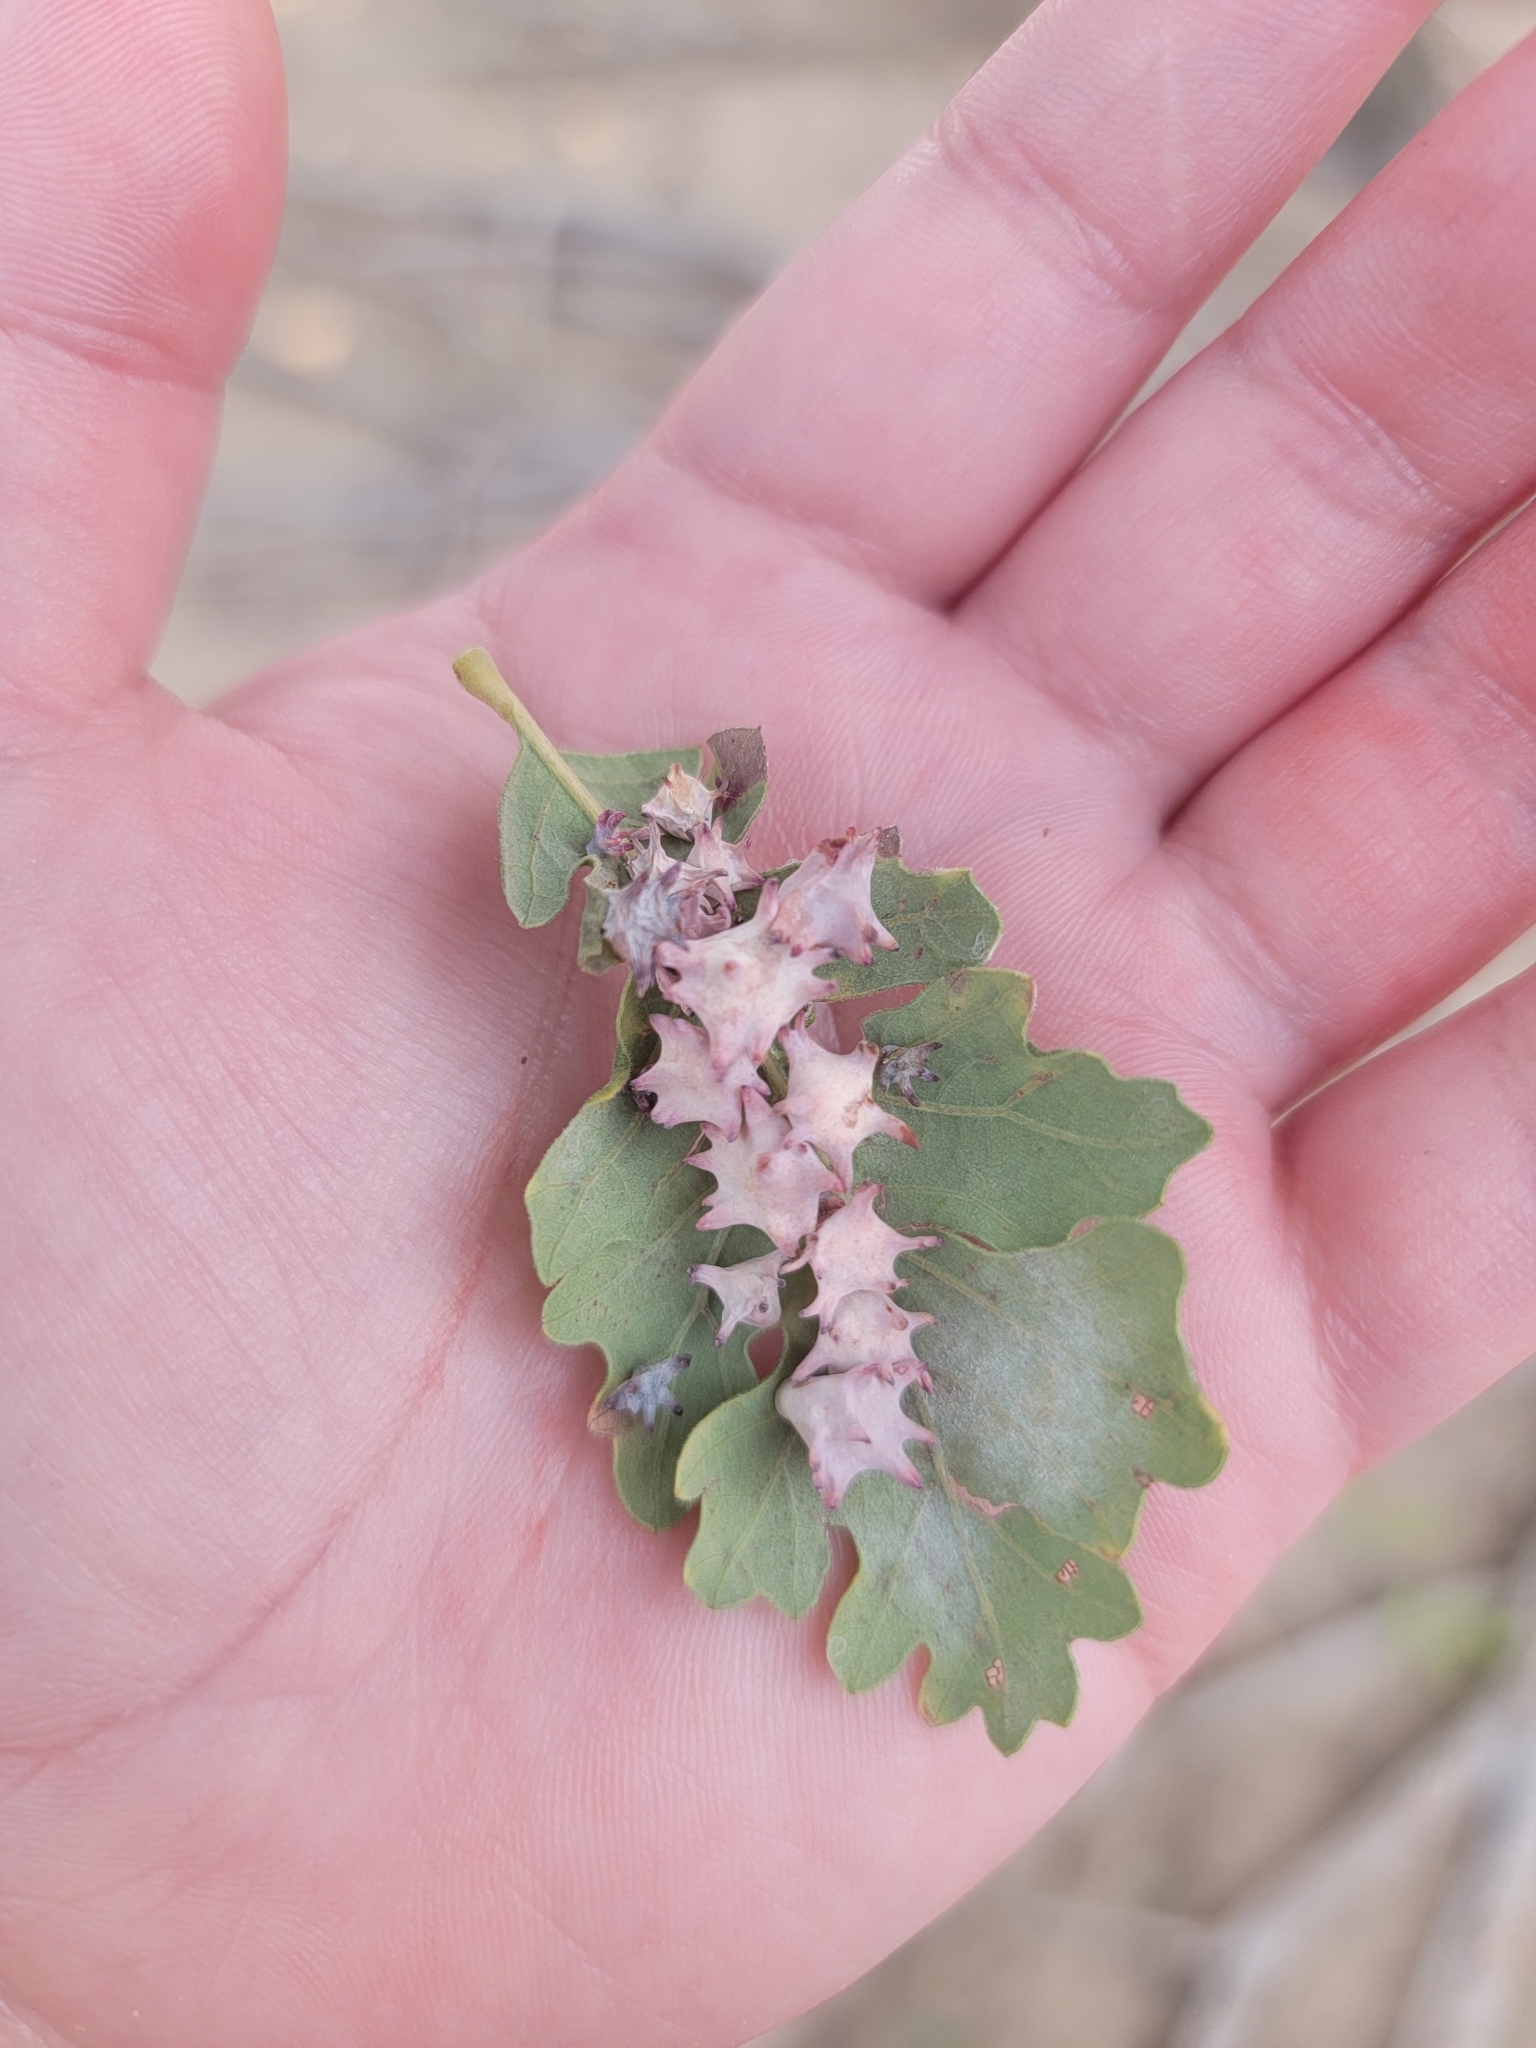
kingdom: Animalia
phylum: Arthropoda
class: Insecta
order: Hymenoptera
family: Cynipidae
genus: Cynips
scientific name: Cynips douglasi
